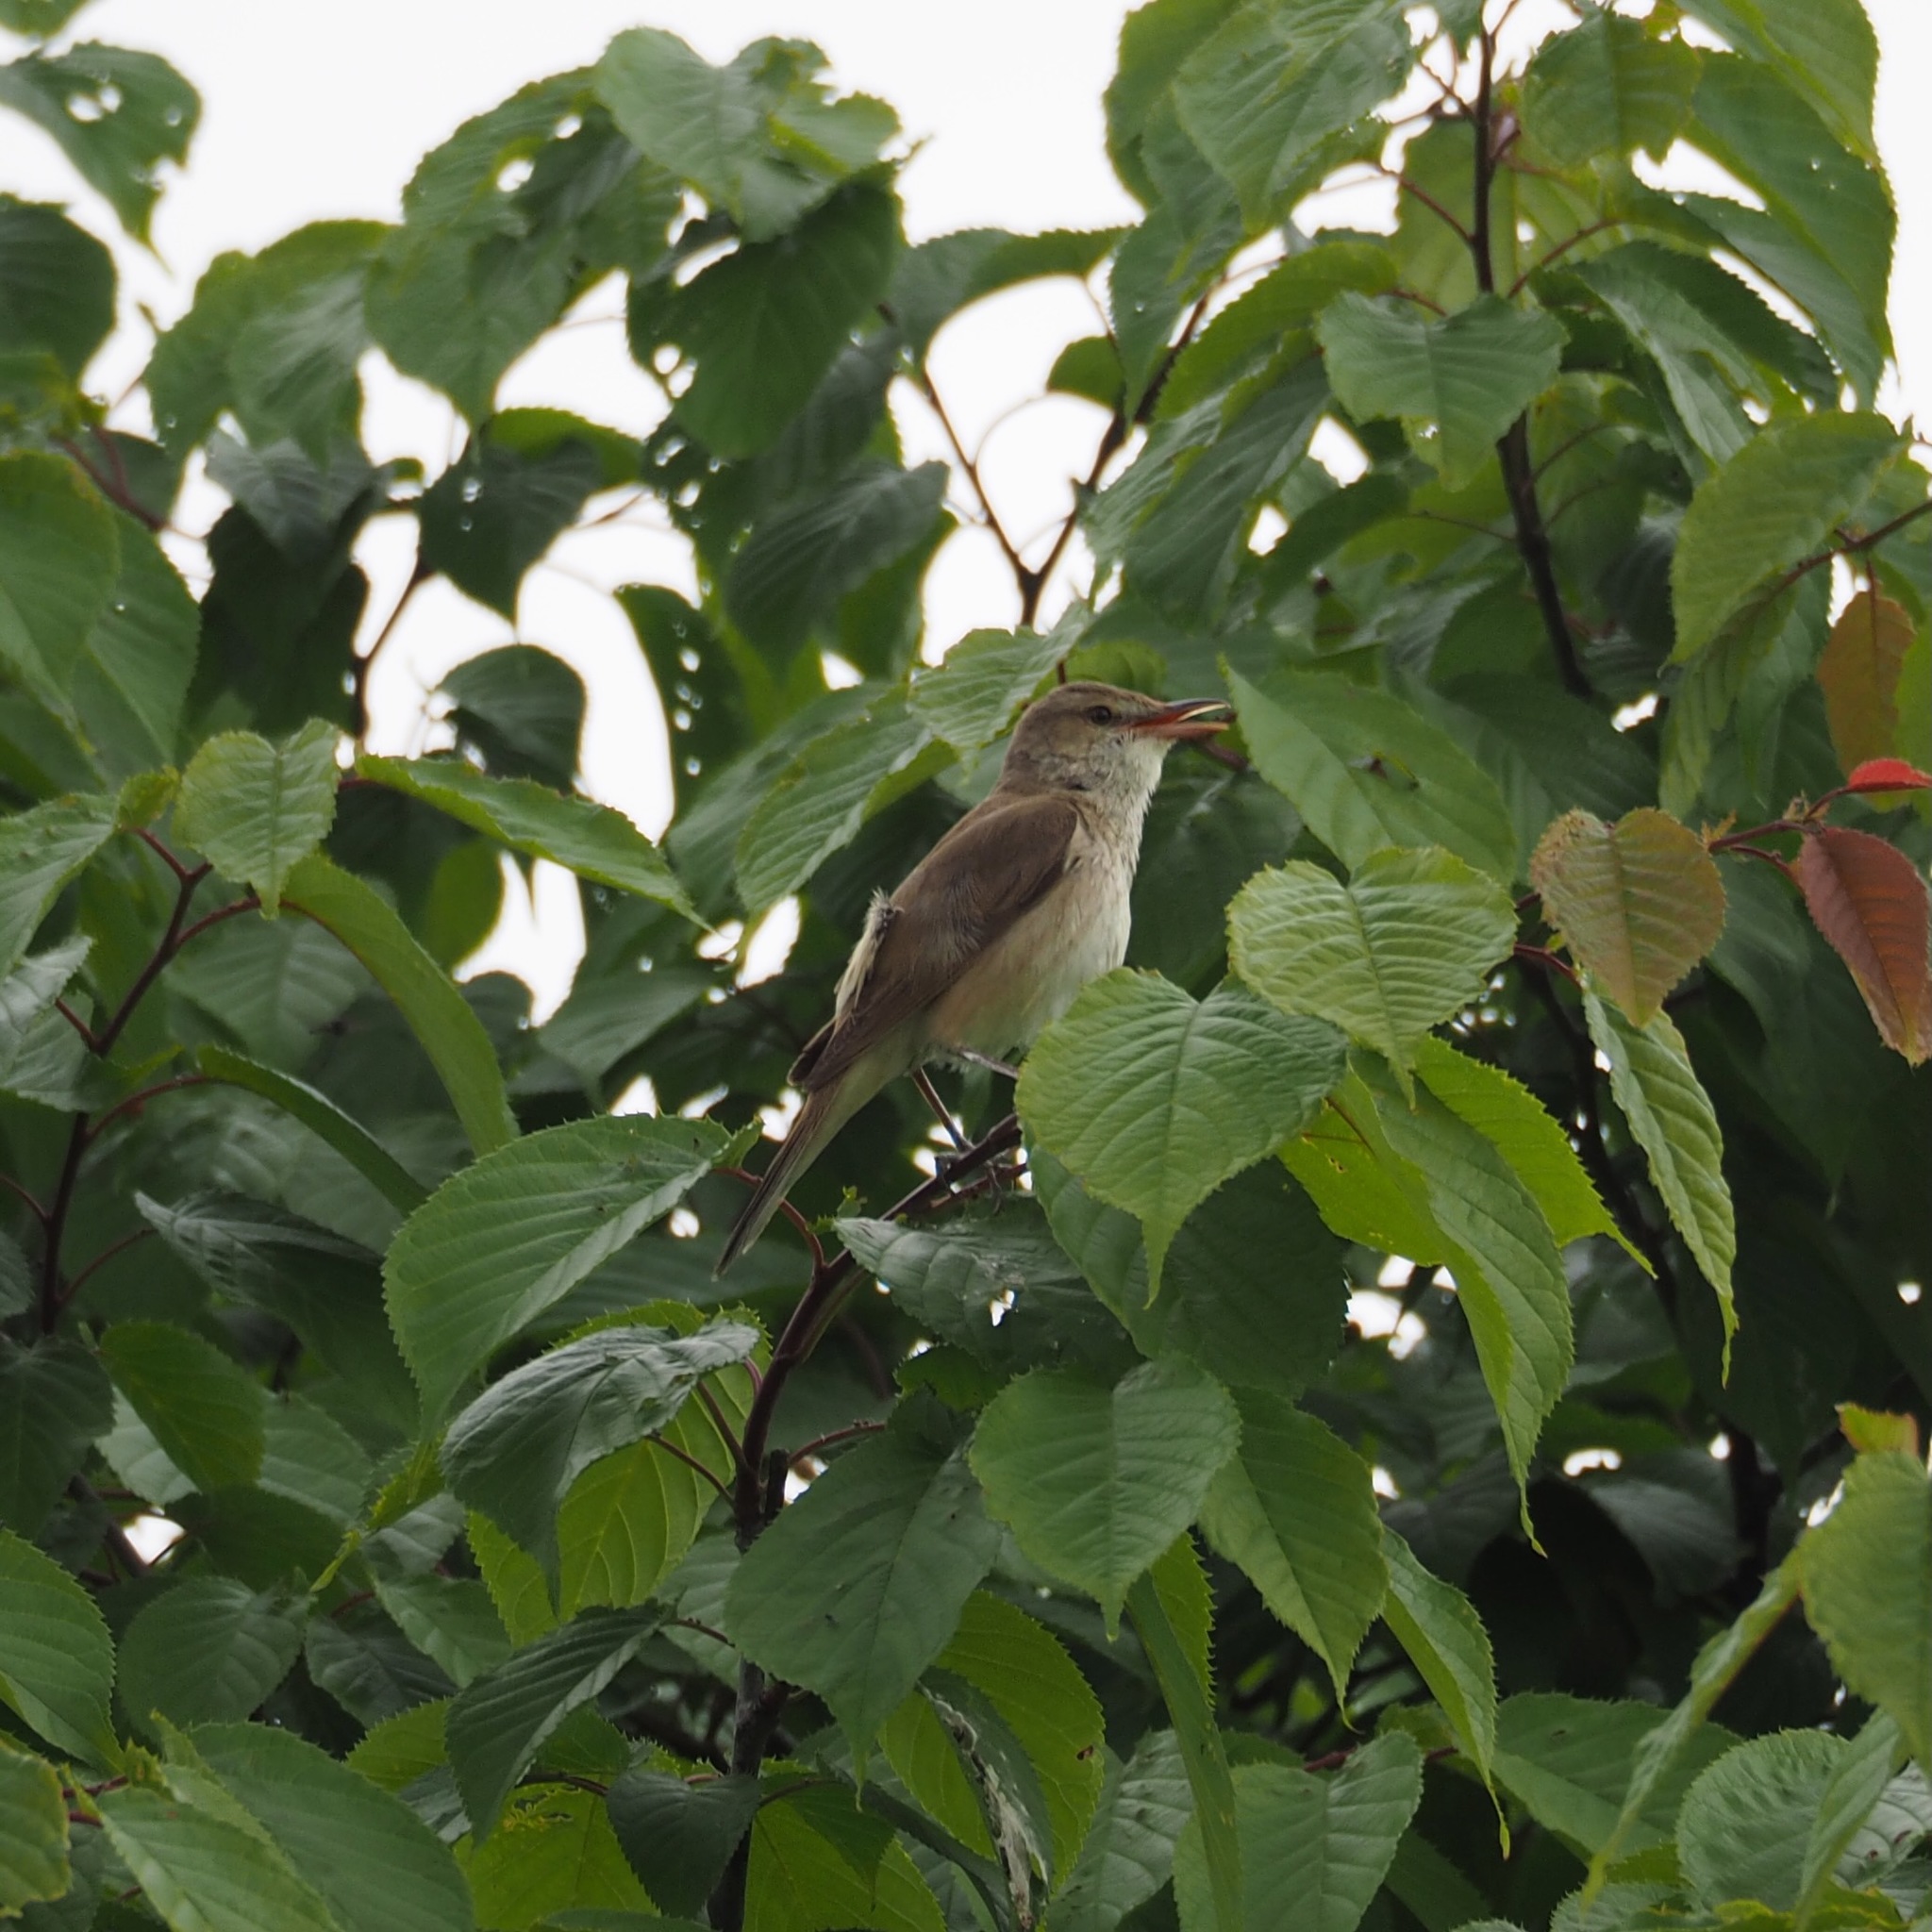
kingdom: Animalia
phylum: Chordata
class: Aves
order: Passeriformes
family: Acrocephalidae
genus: Acrocephalus
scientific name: Acrocephalus orientalis
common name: Oriental reed warbler
